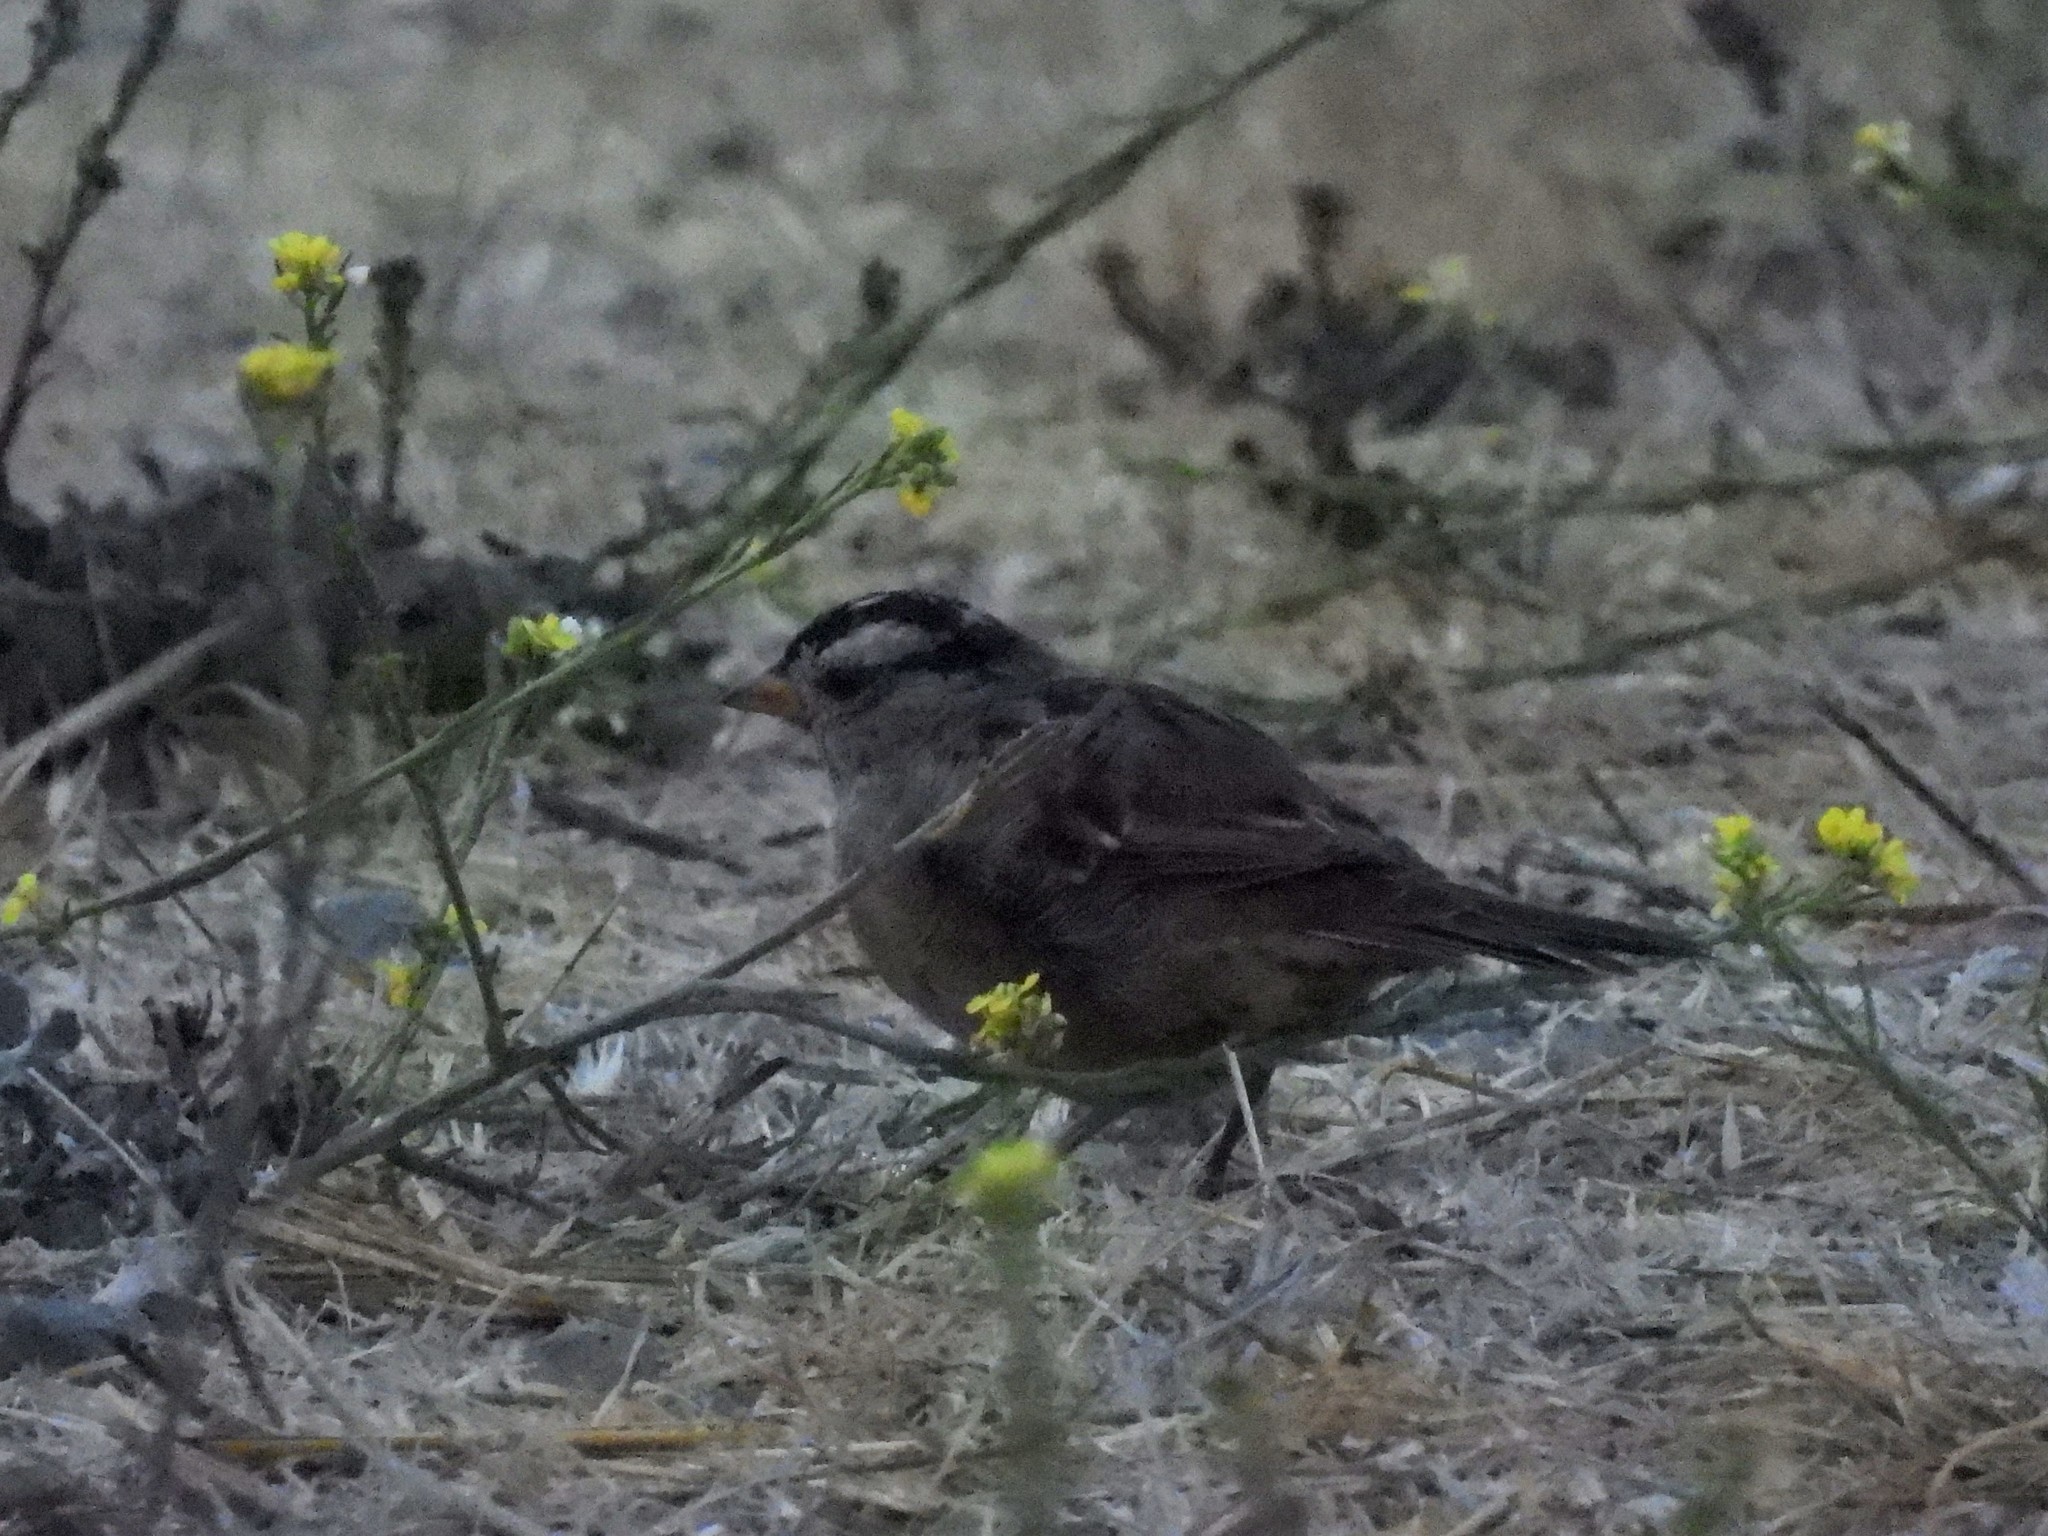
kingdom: Animalia
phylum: Chordata
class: Aves
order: Passeriformes
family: Passerellidae
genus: Zonotrichia
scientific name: Zonotrichia leucophrys
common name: White-crowned sparrow
